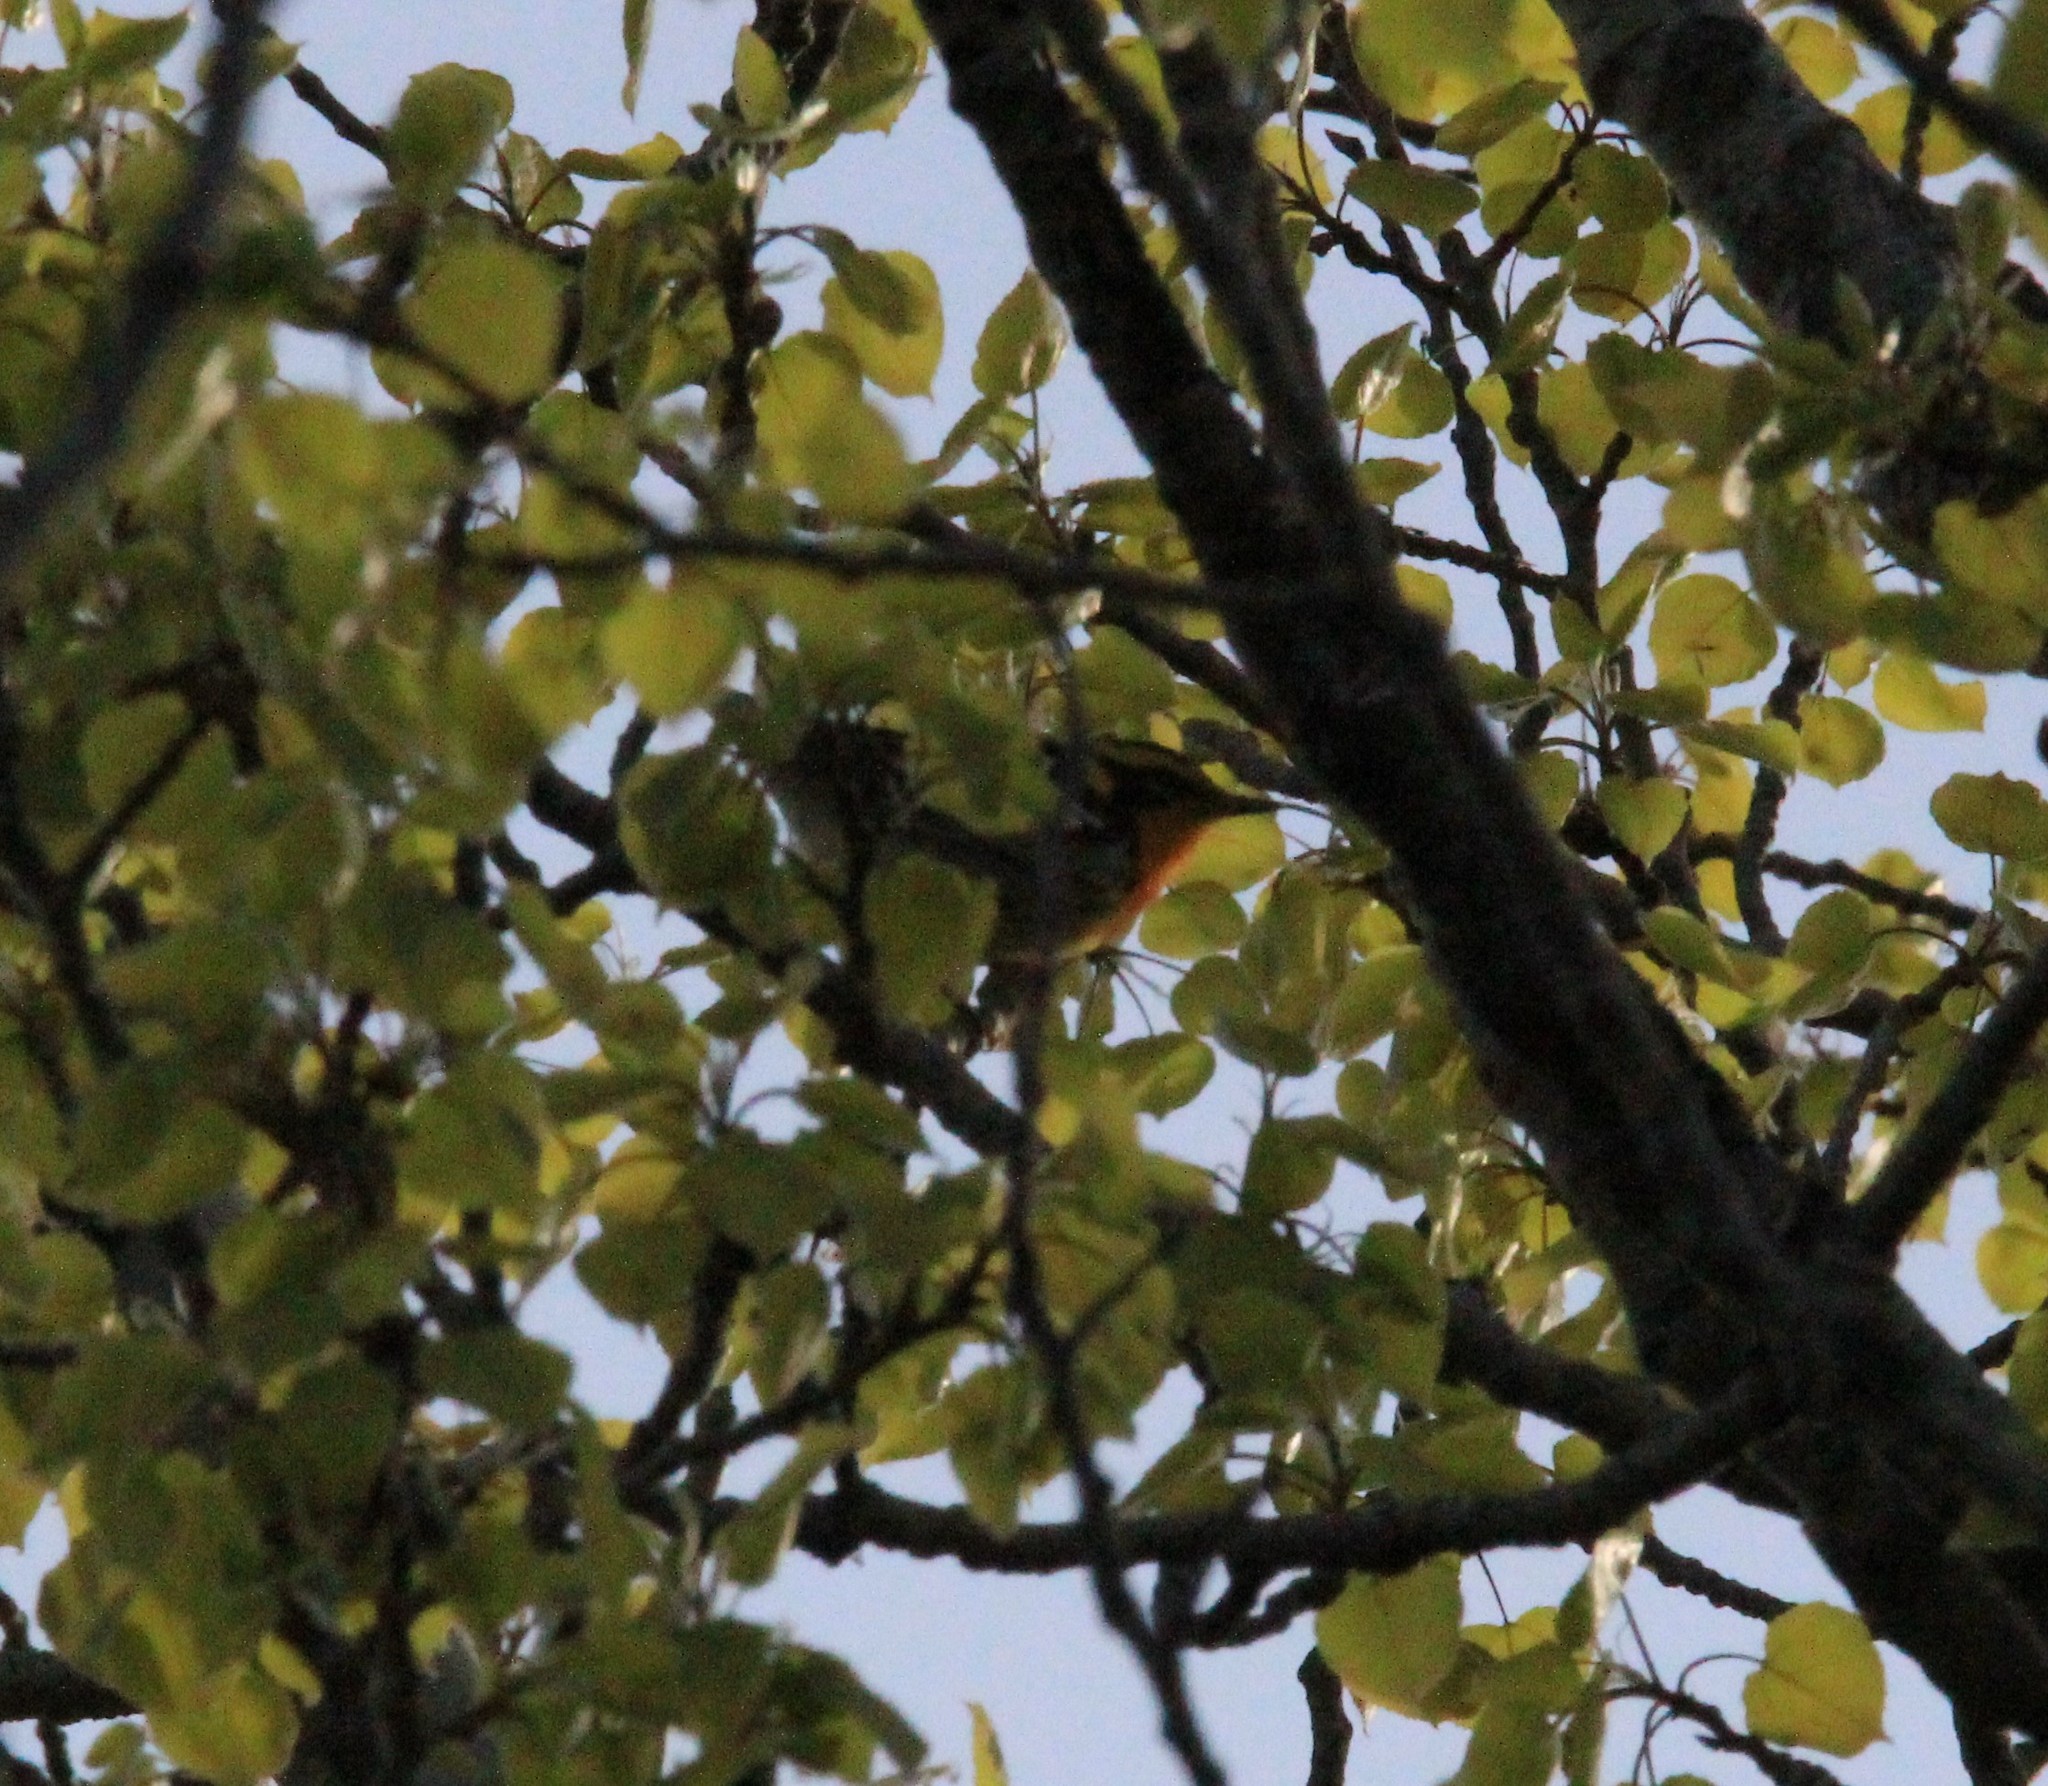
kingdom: Animalia
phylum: Chordata
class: Aves
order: Passeriformes
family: Parulidae
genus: Setophaga
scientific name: Setophaga fusca
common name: Blackburnian warbler
